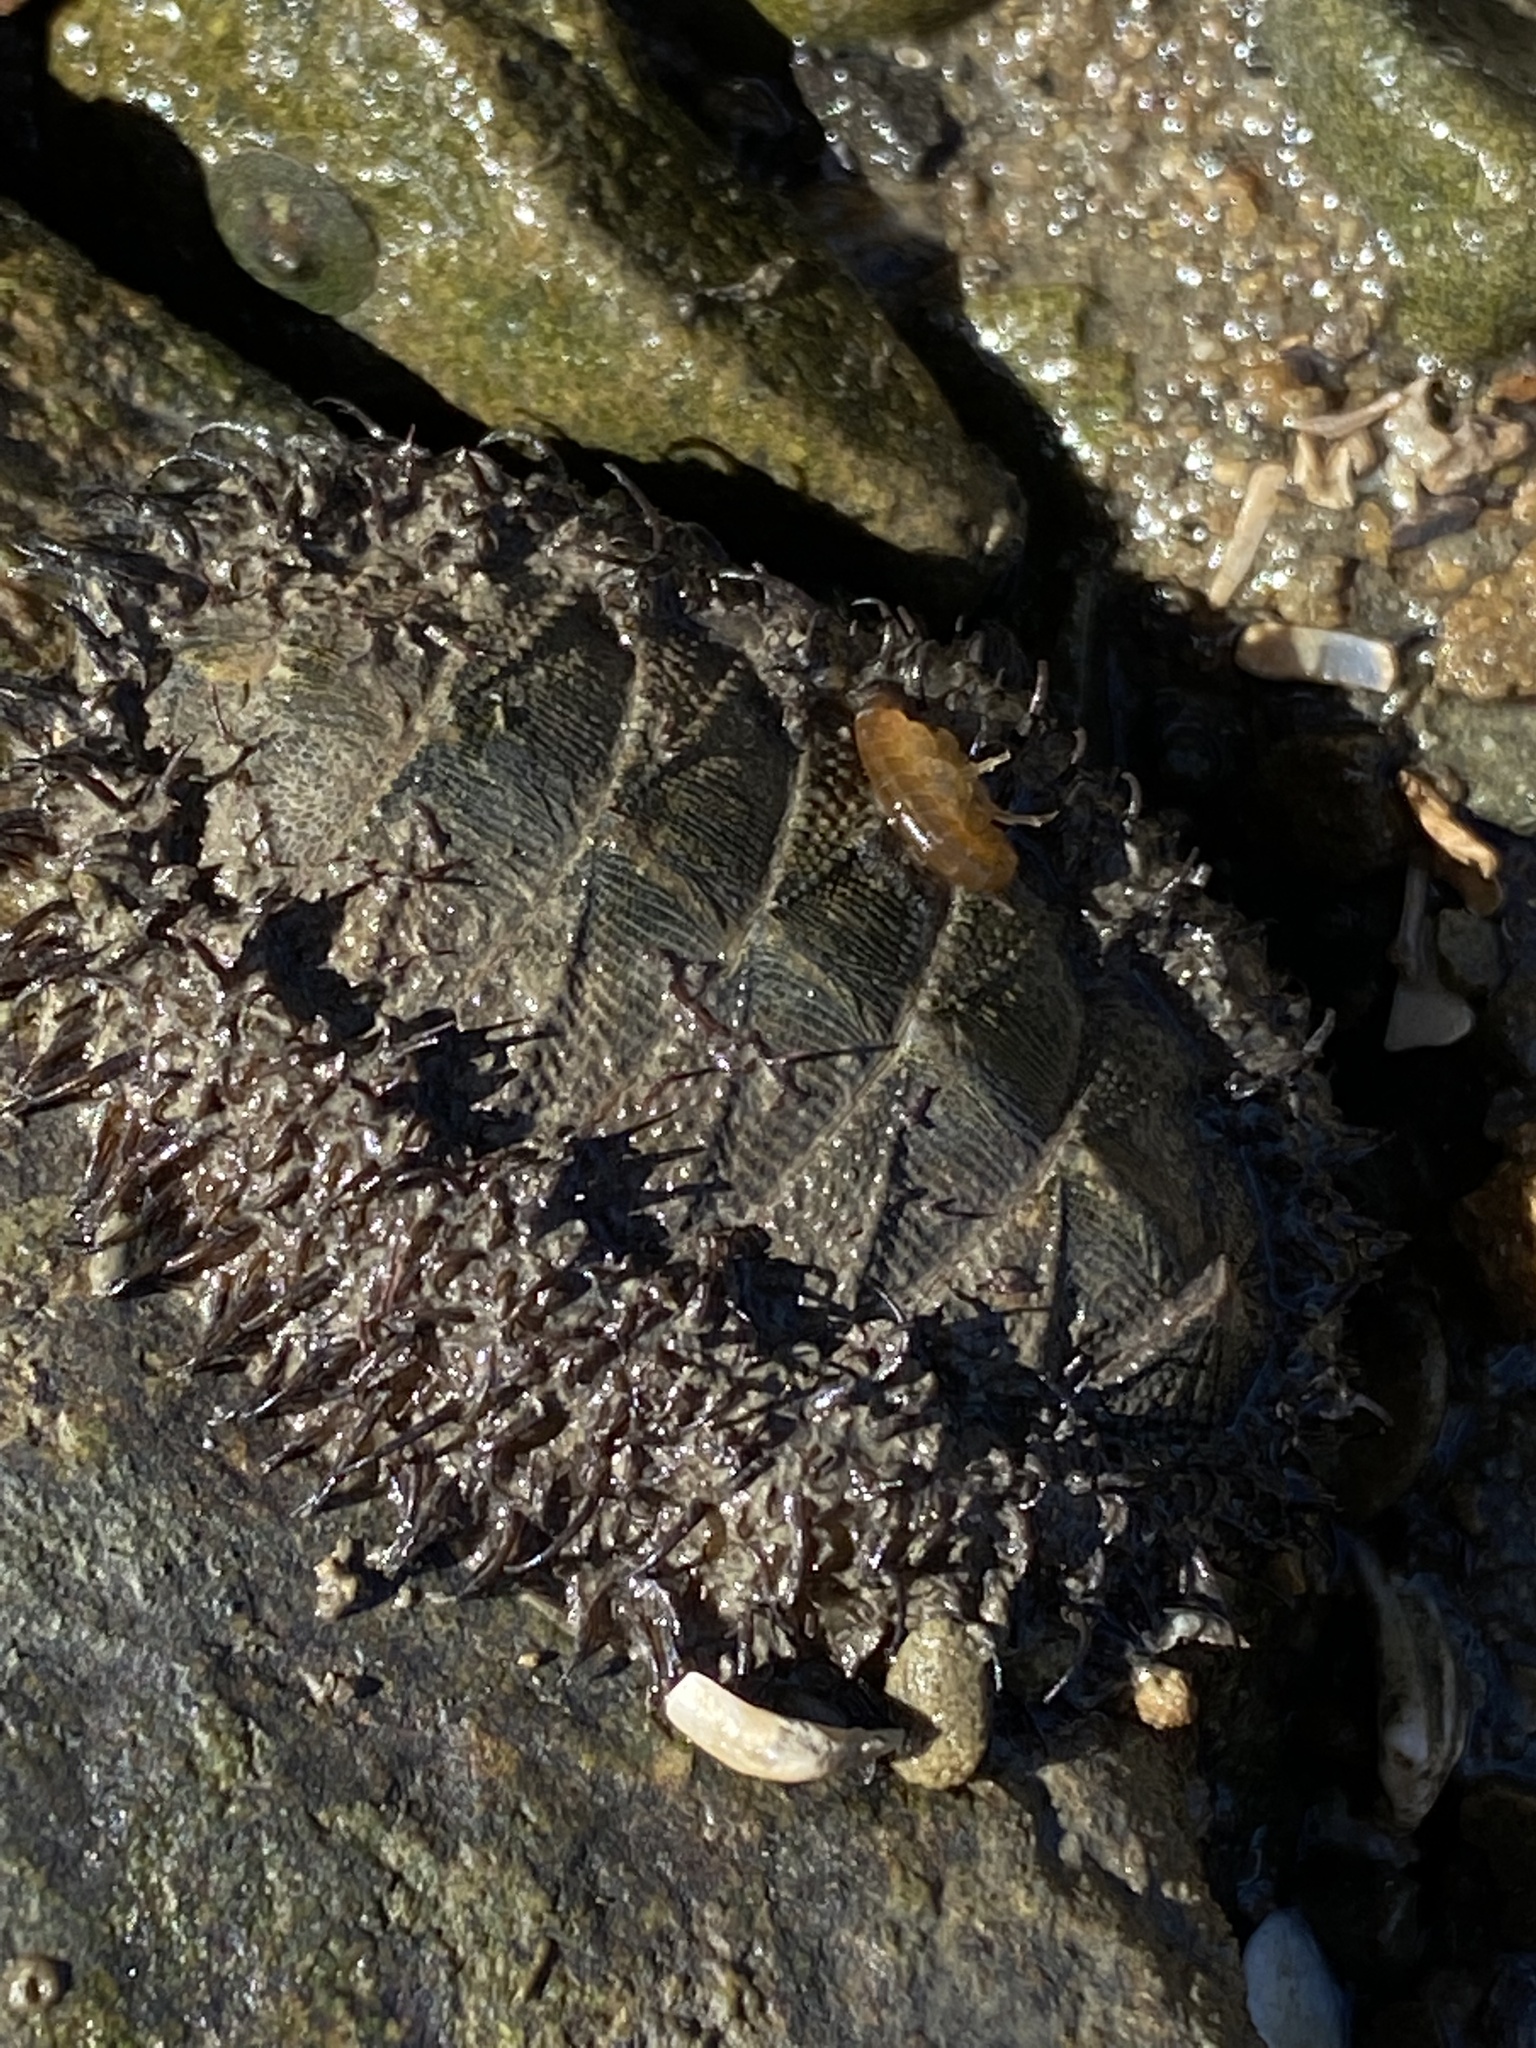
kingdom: Animalia
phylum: Mollusca
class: Polyplacophora
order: Chitonida
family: Mopaliidae
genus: Mopalia
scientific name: Mopalia muscosa
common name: Mossy chiton
